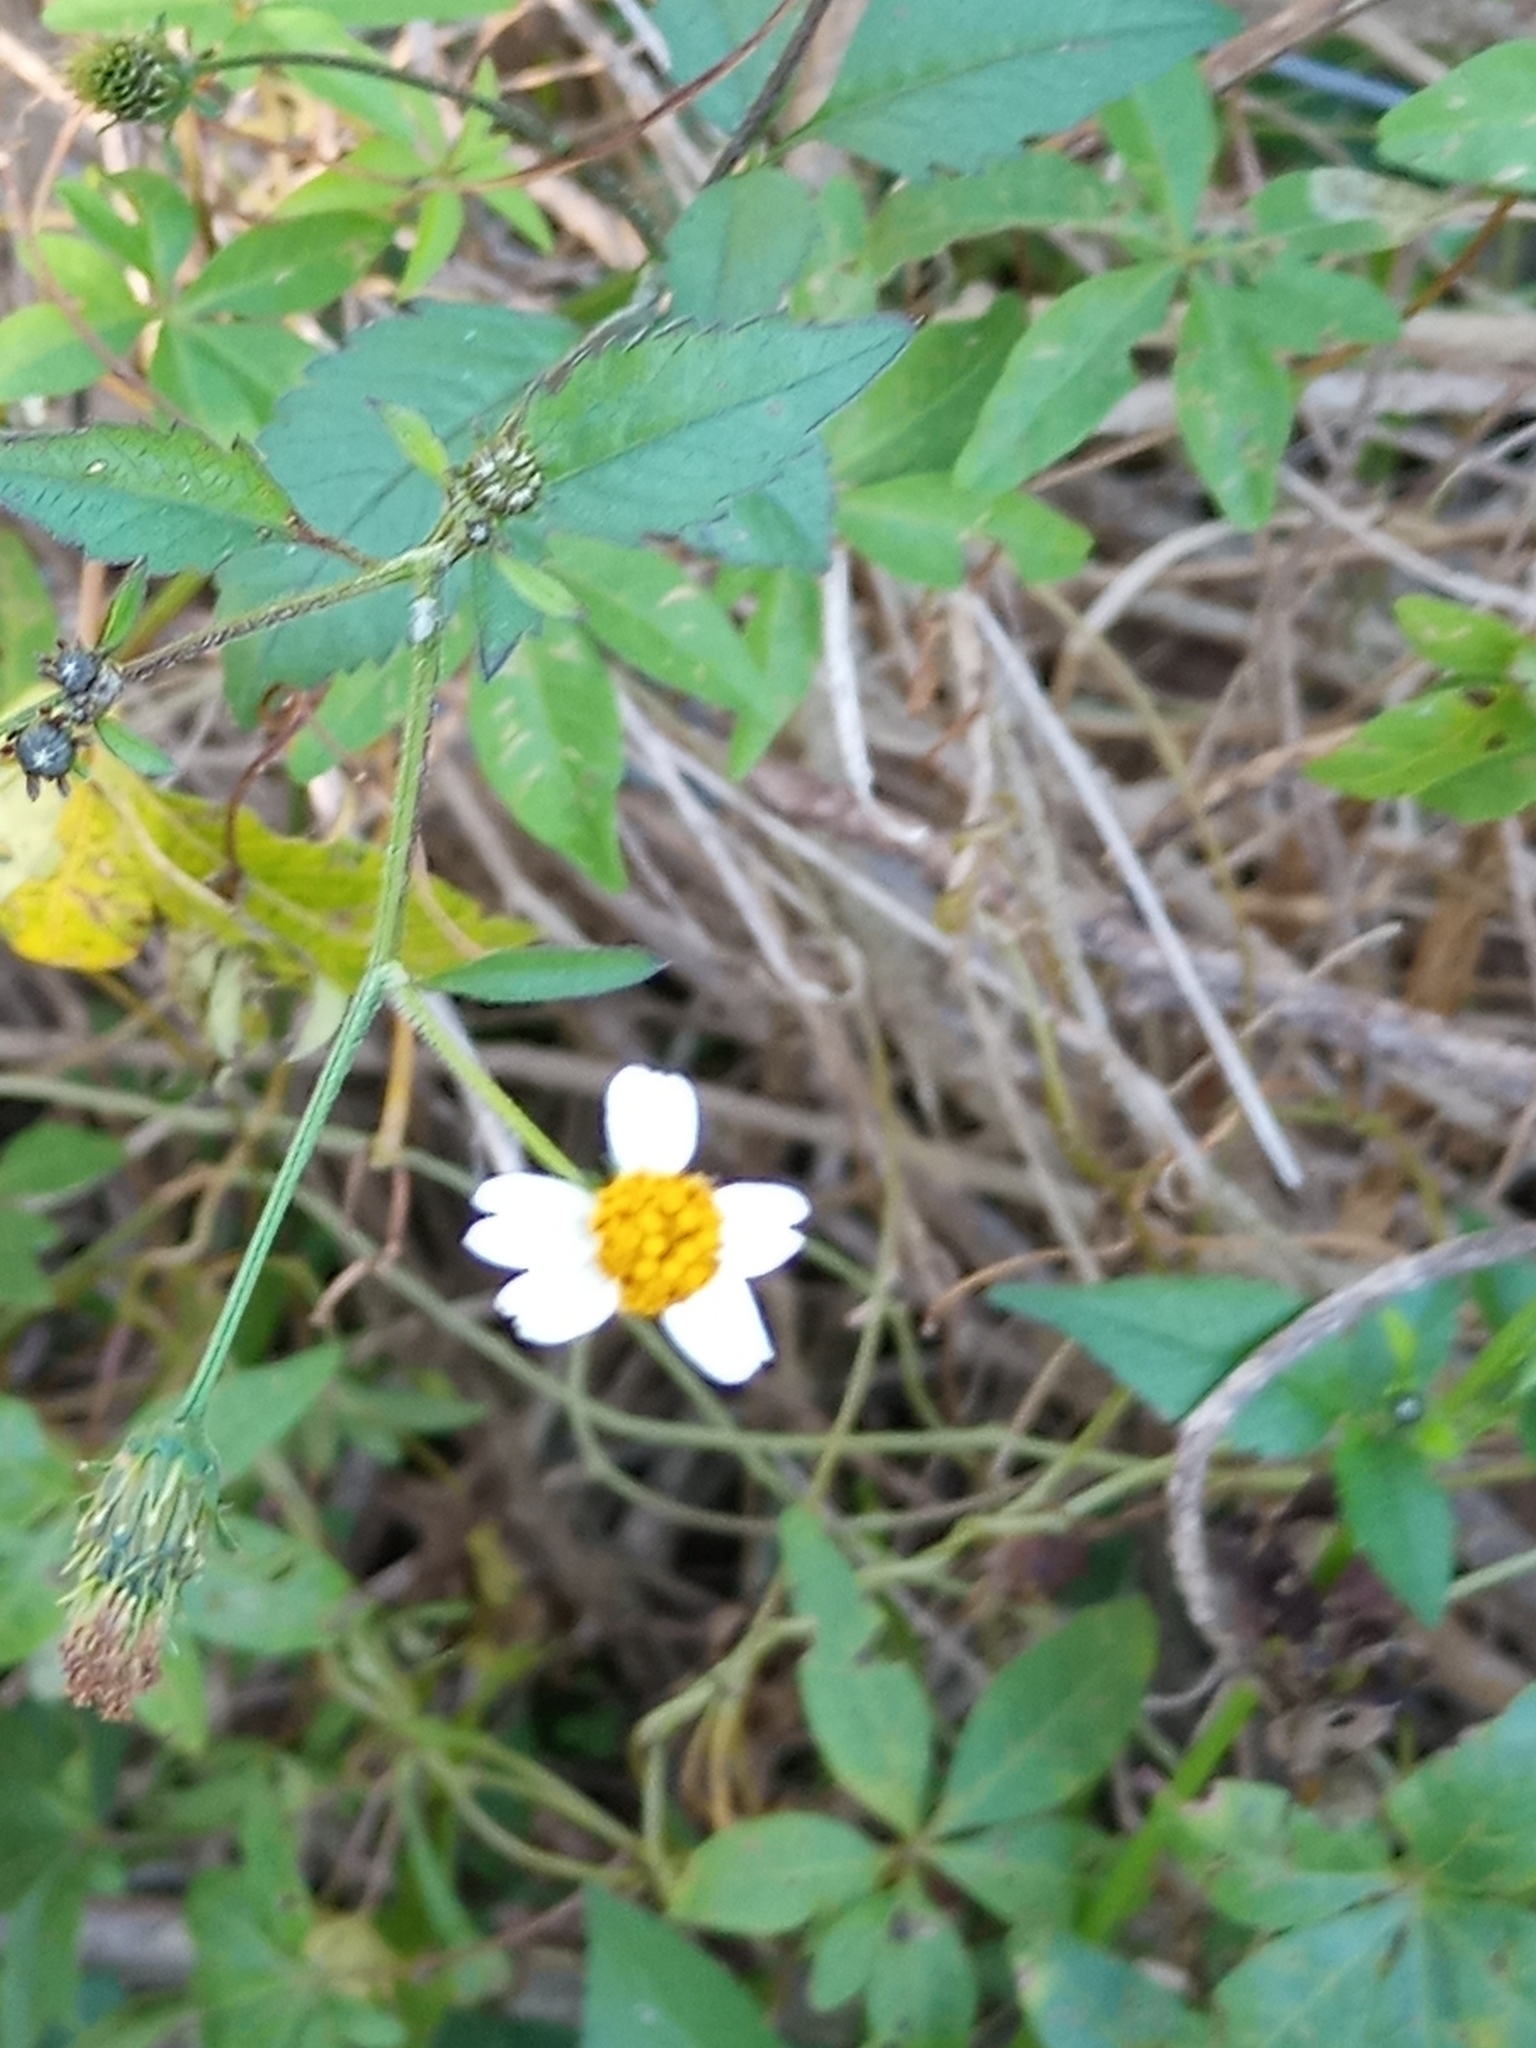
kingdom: Plantae
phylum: Tracheophyta
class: Magnoliopsida
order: Asterales
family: Asteraceae
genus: Bidens
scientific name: Bidens pilosa
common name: Black-jack
